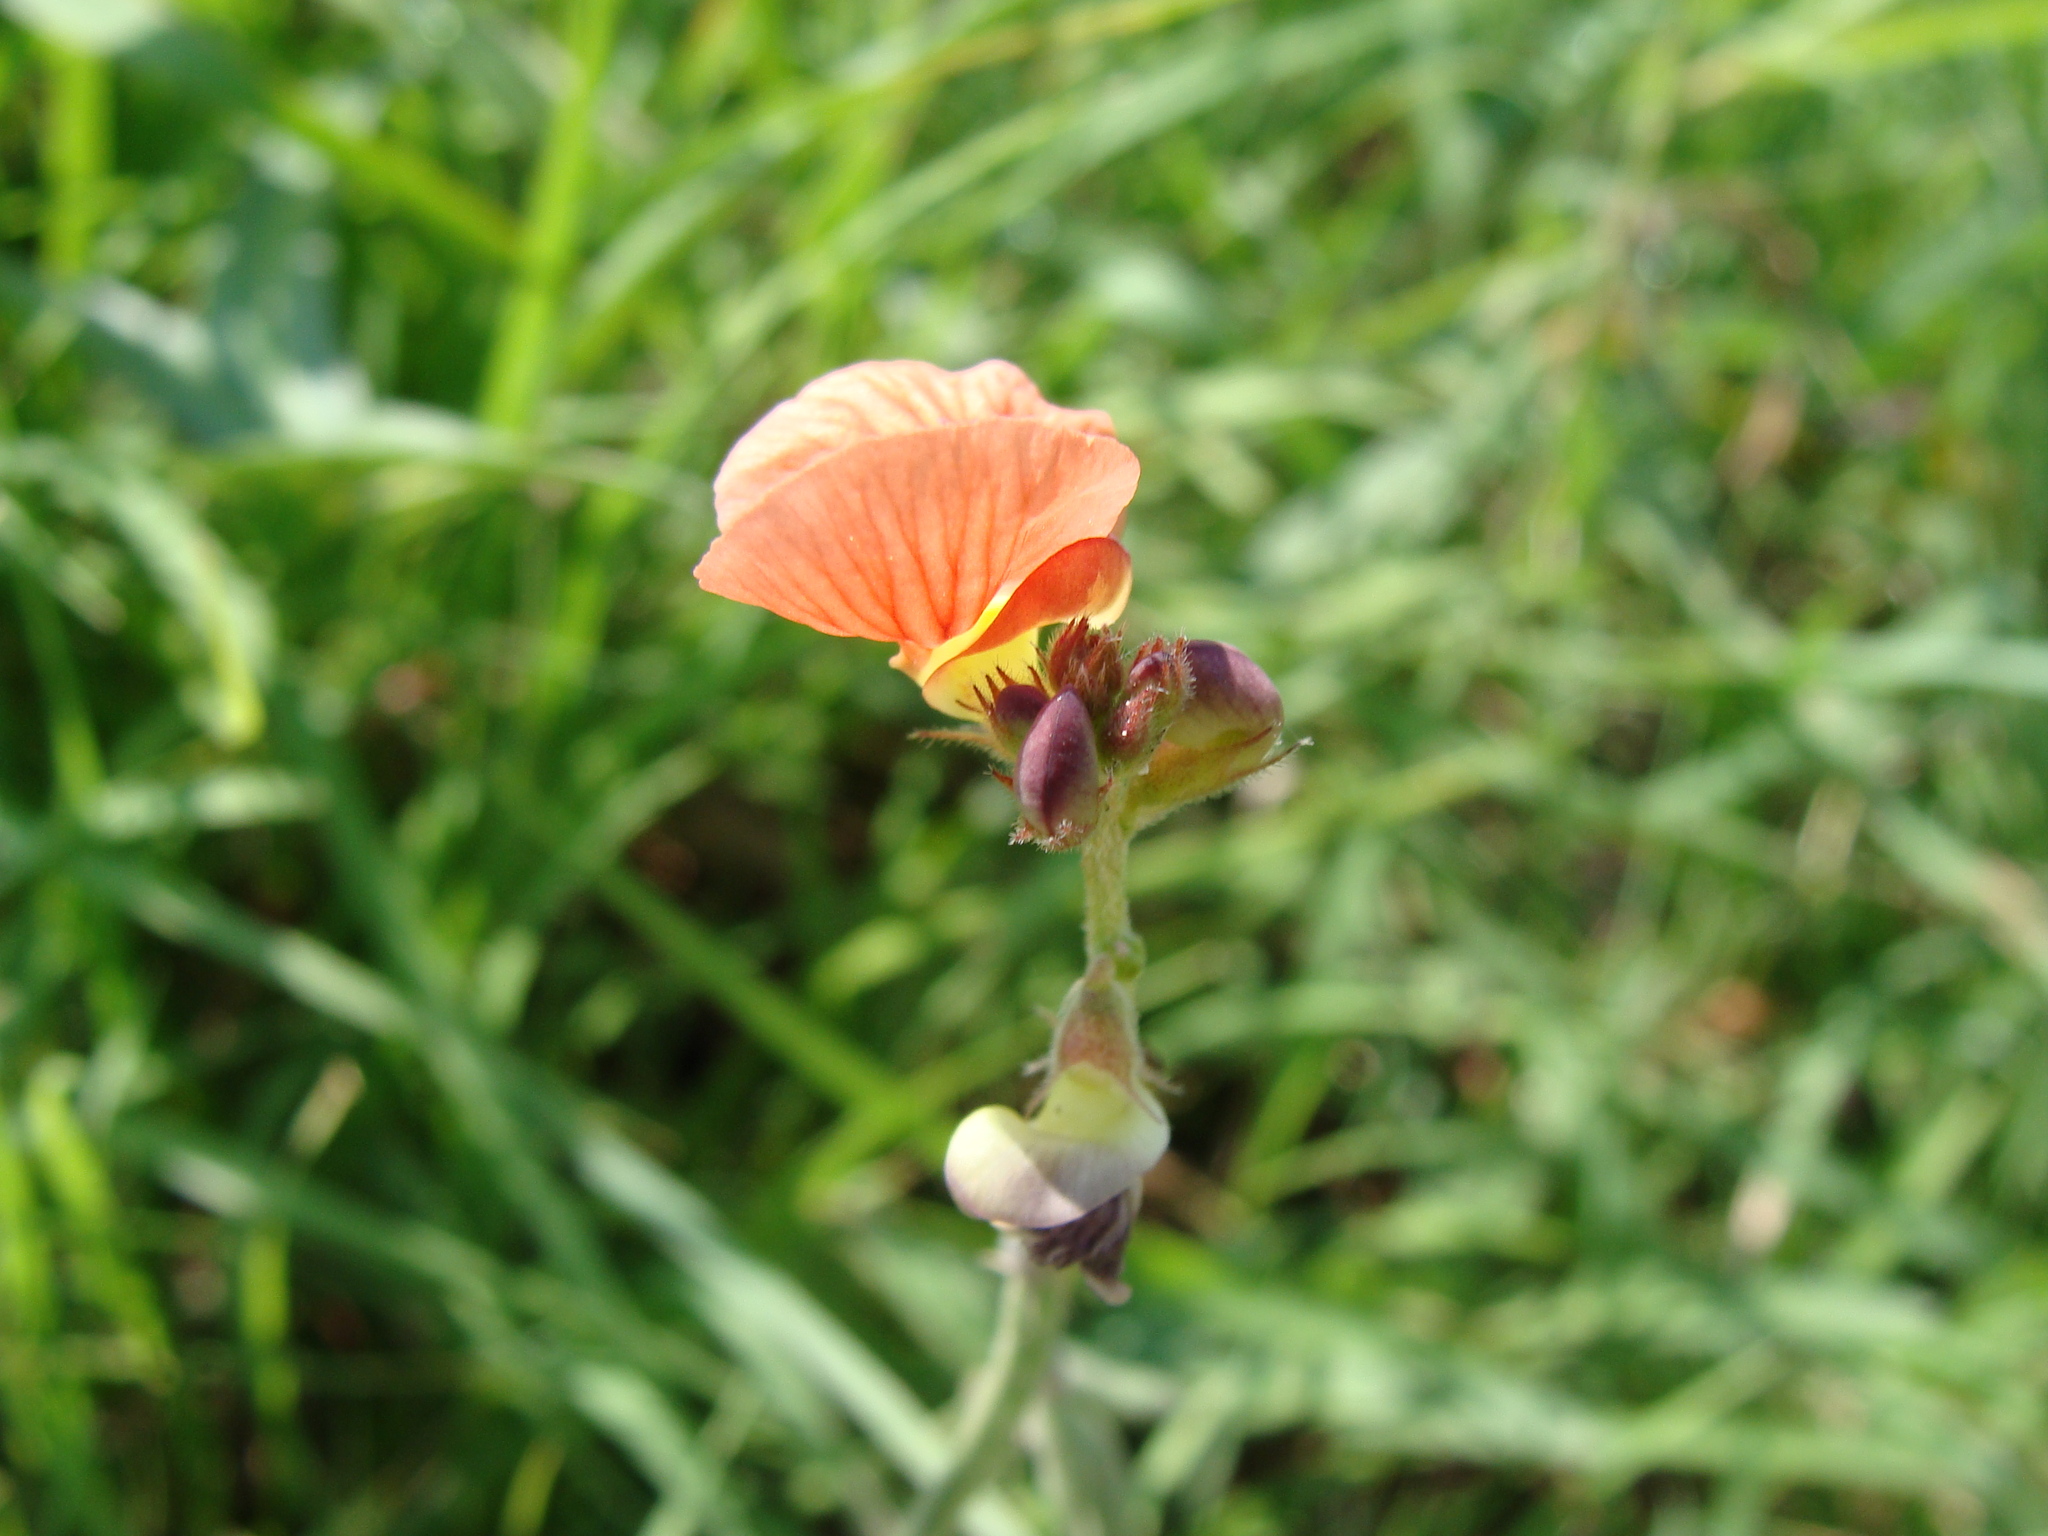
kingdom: Plantae
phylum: Tracheophyta
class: Magnoliopsida
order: Fabales
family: Fabaceae
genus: Macroptilium
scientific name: Macroptilium gibbosifolium
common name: Variableleaf bushbean
